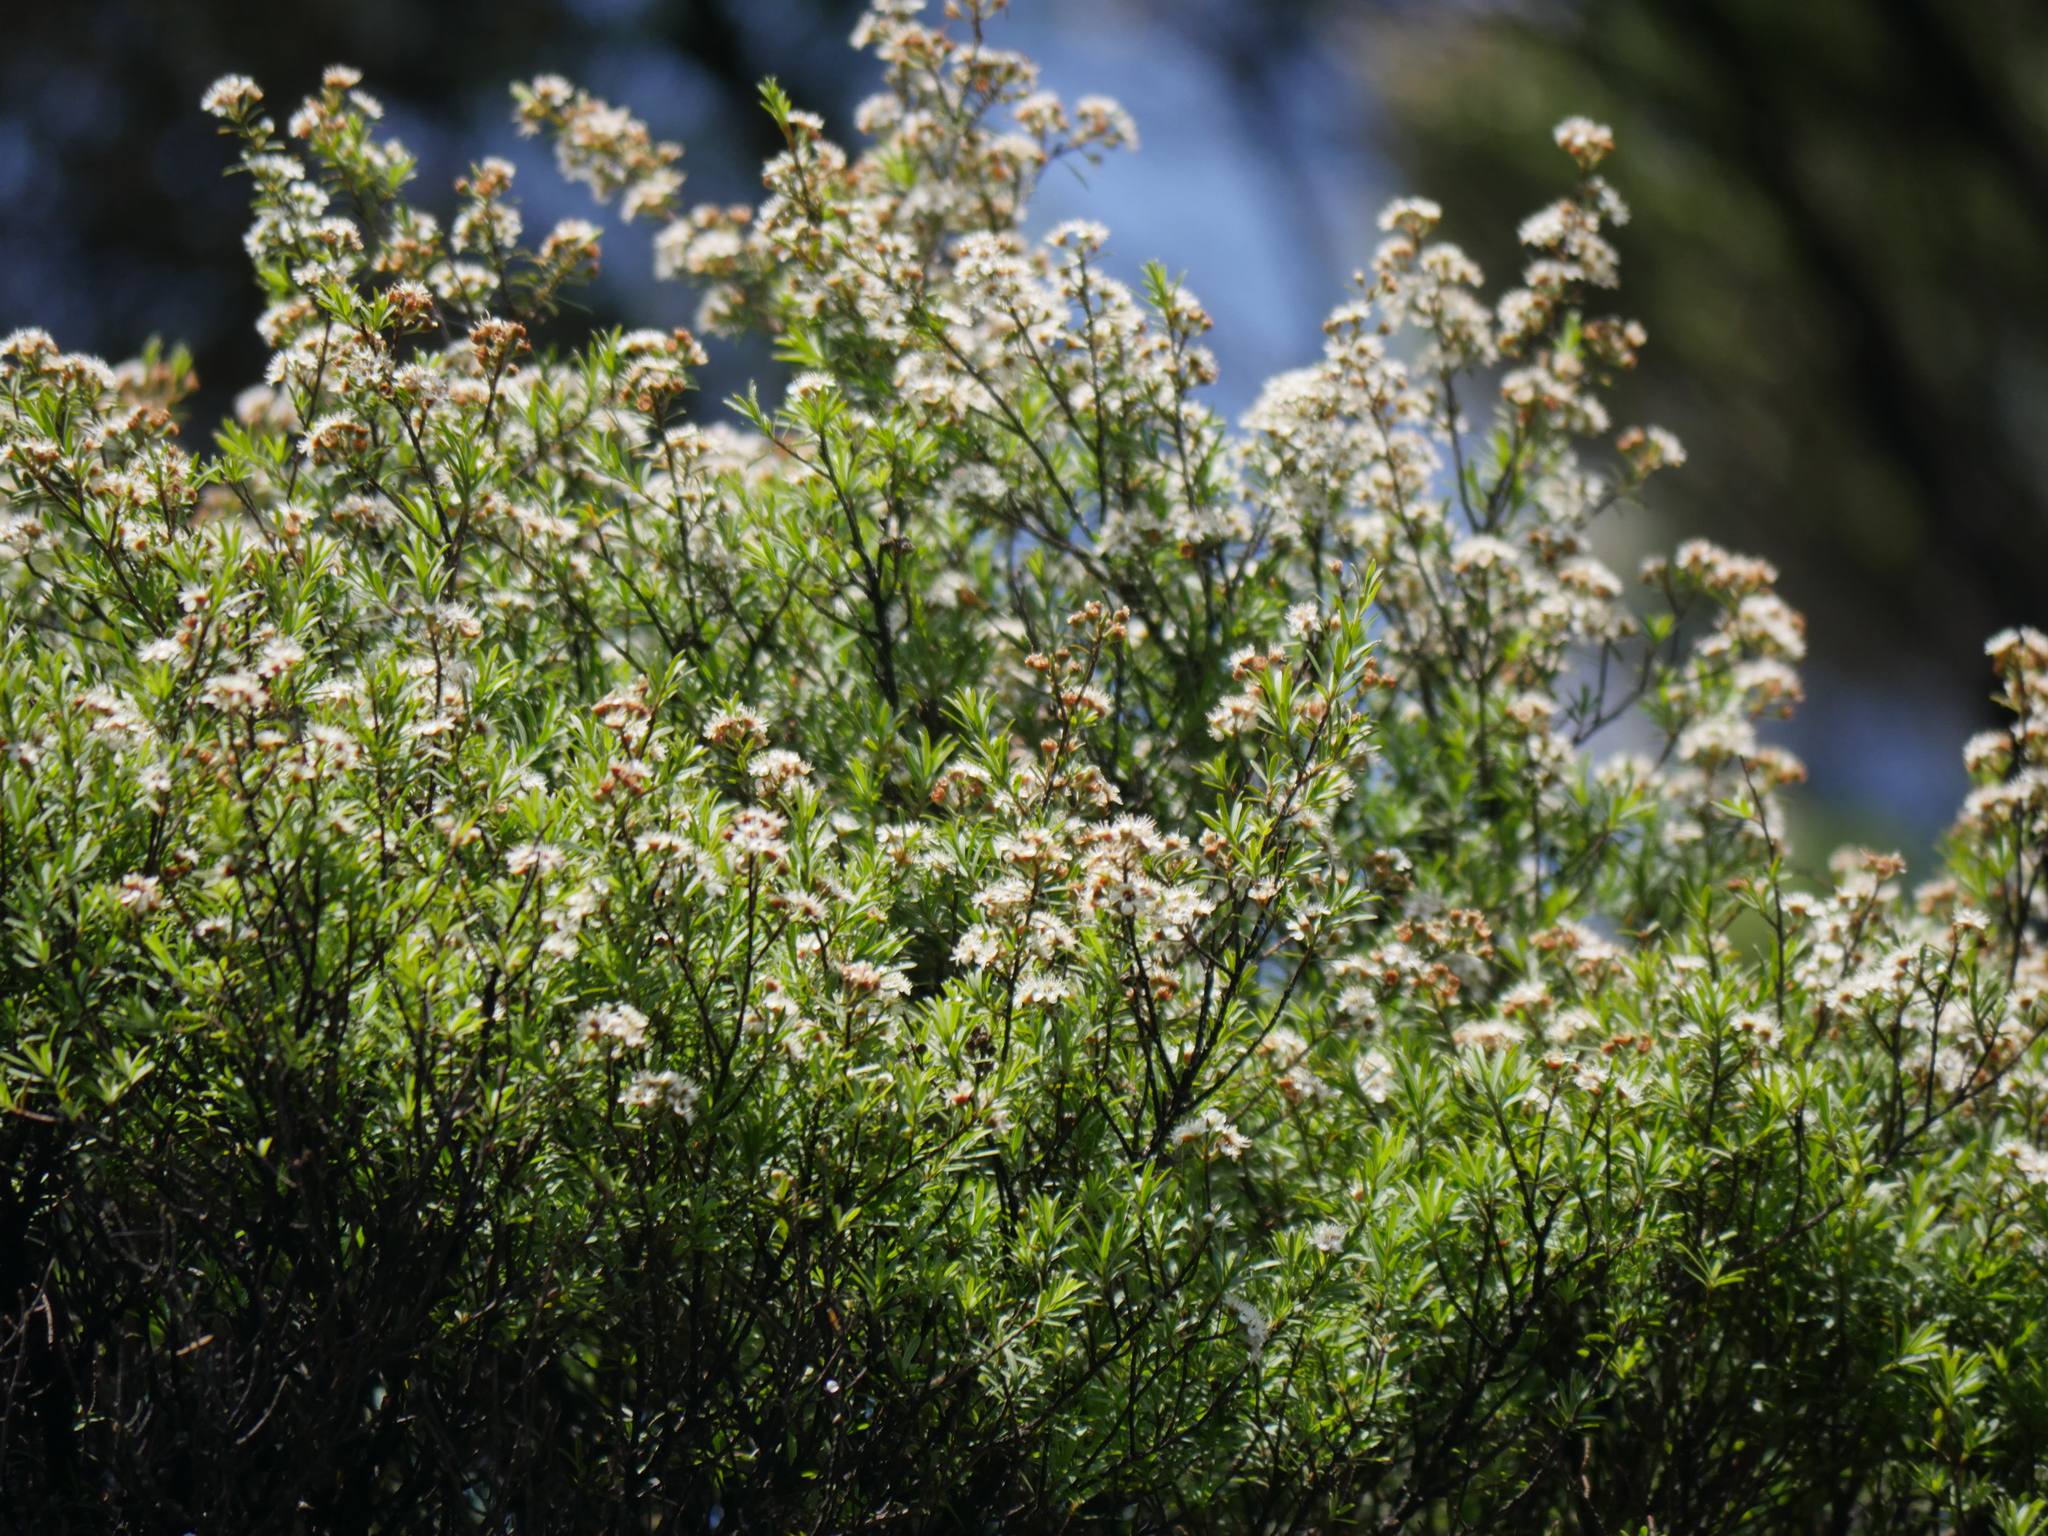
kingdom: Plantae
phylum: Tracheophyta
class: Magnoliopsida
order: Myrtales
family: Myrtaceae
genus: Kunzea
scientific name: Kunzea robusta
